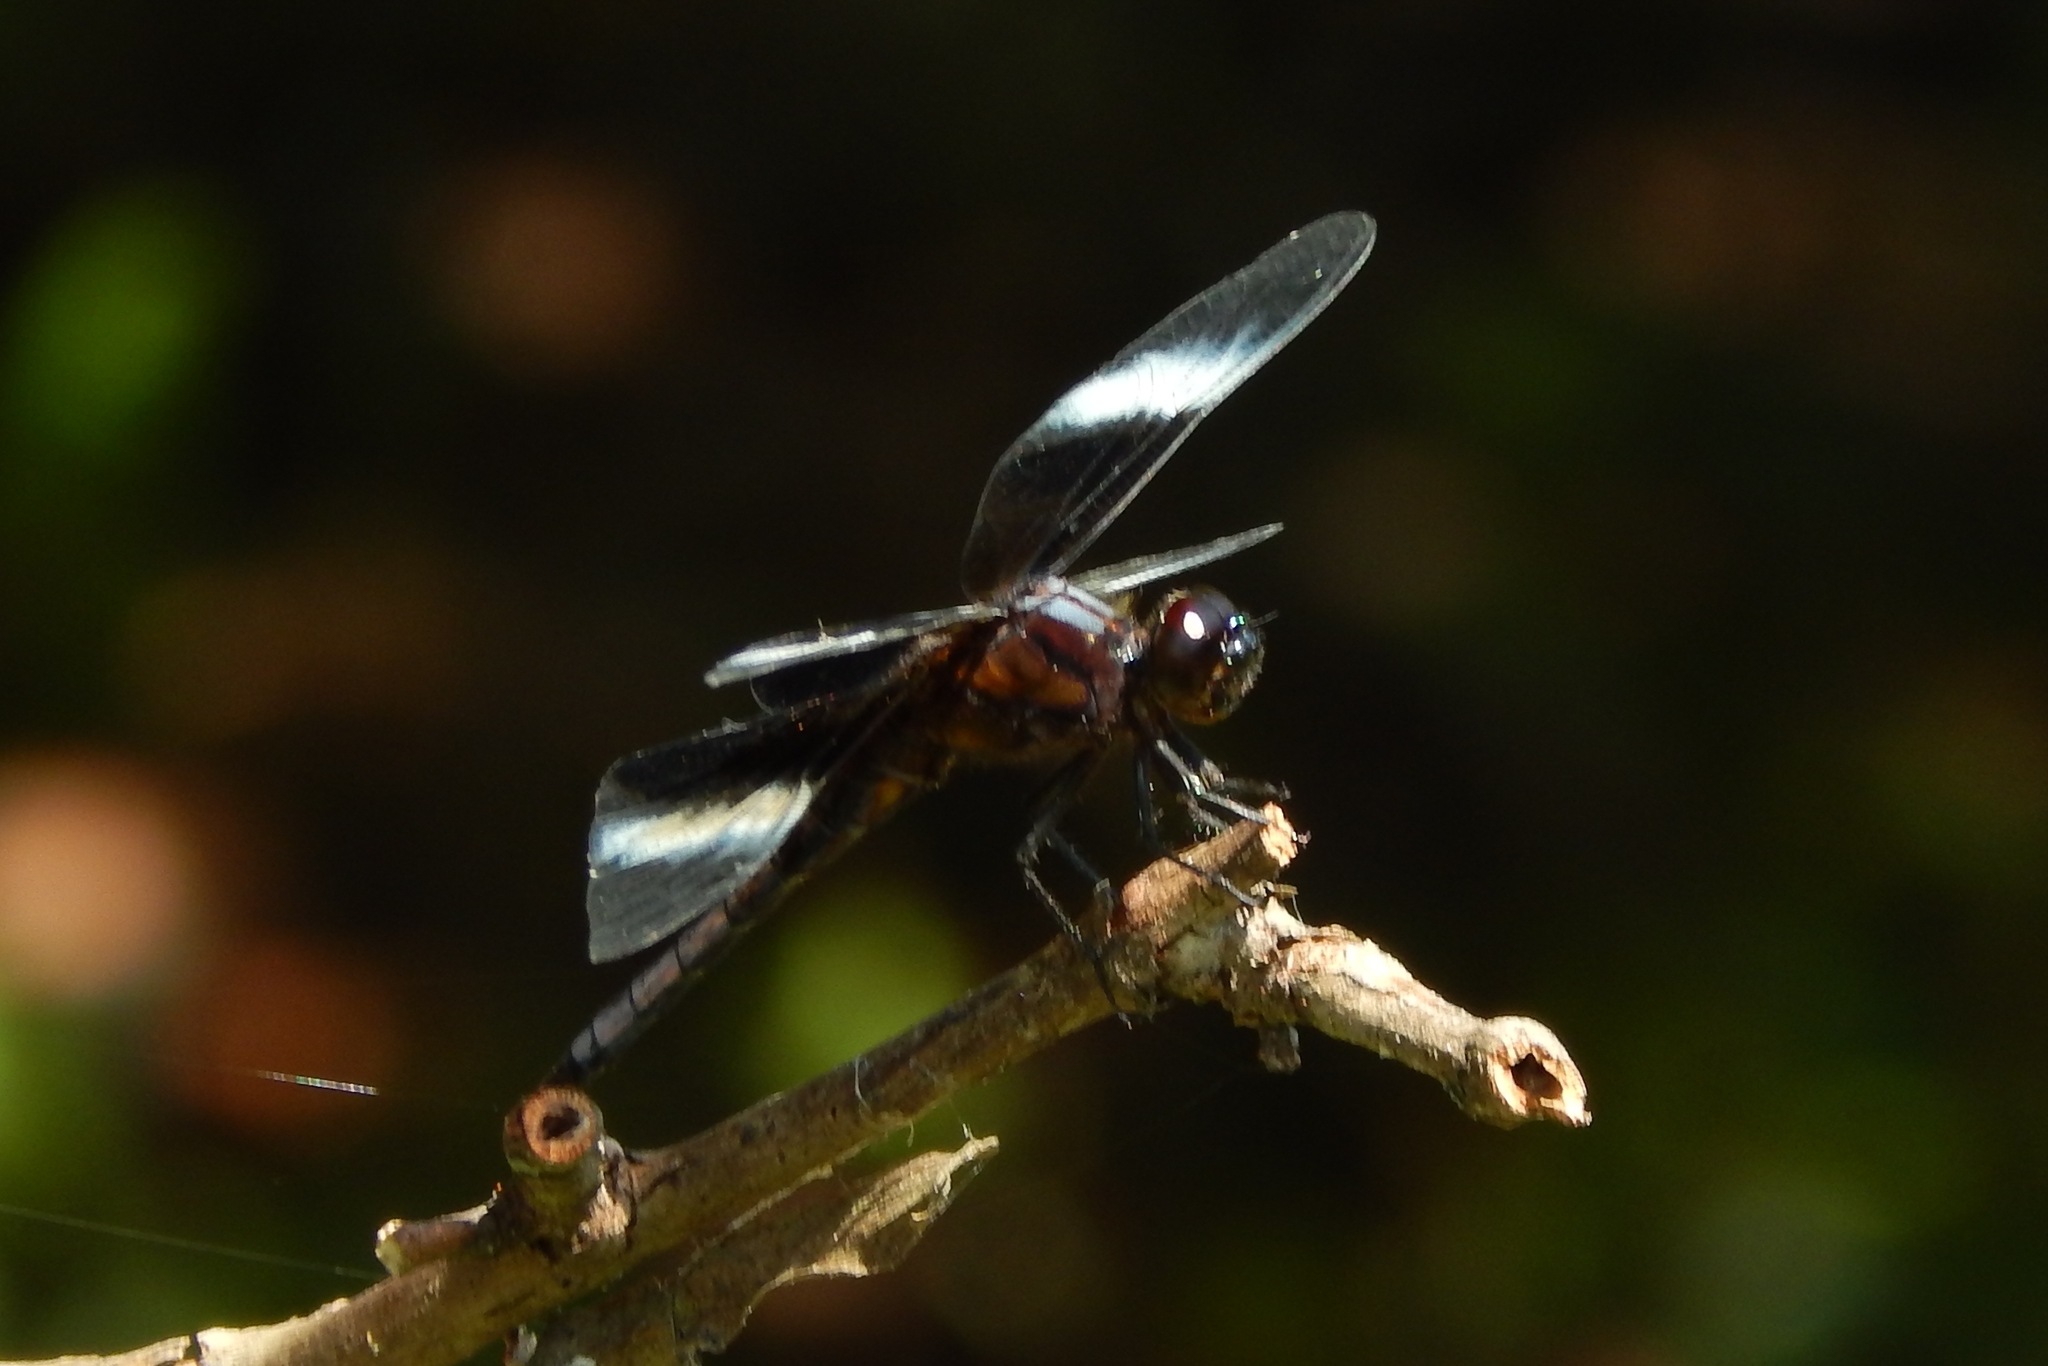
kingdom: Animalia
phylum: Arthropoda
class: Insecta
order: Odonata
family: Libellulidae
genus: Libellula
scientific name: Libellula luctuosa
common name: Widow skimmer
